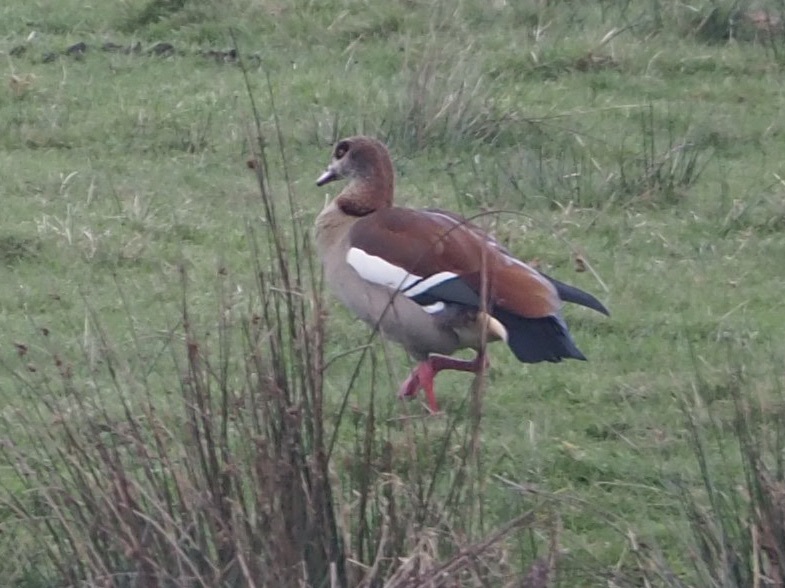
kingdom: Animalia
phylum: Chordata
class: Aves
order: Anseriformes
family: Anatidae
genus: Alopochen
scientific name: Alopochen aegyptiaca
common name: Egyptian goose
